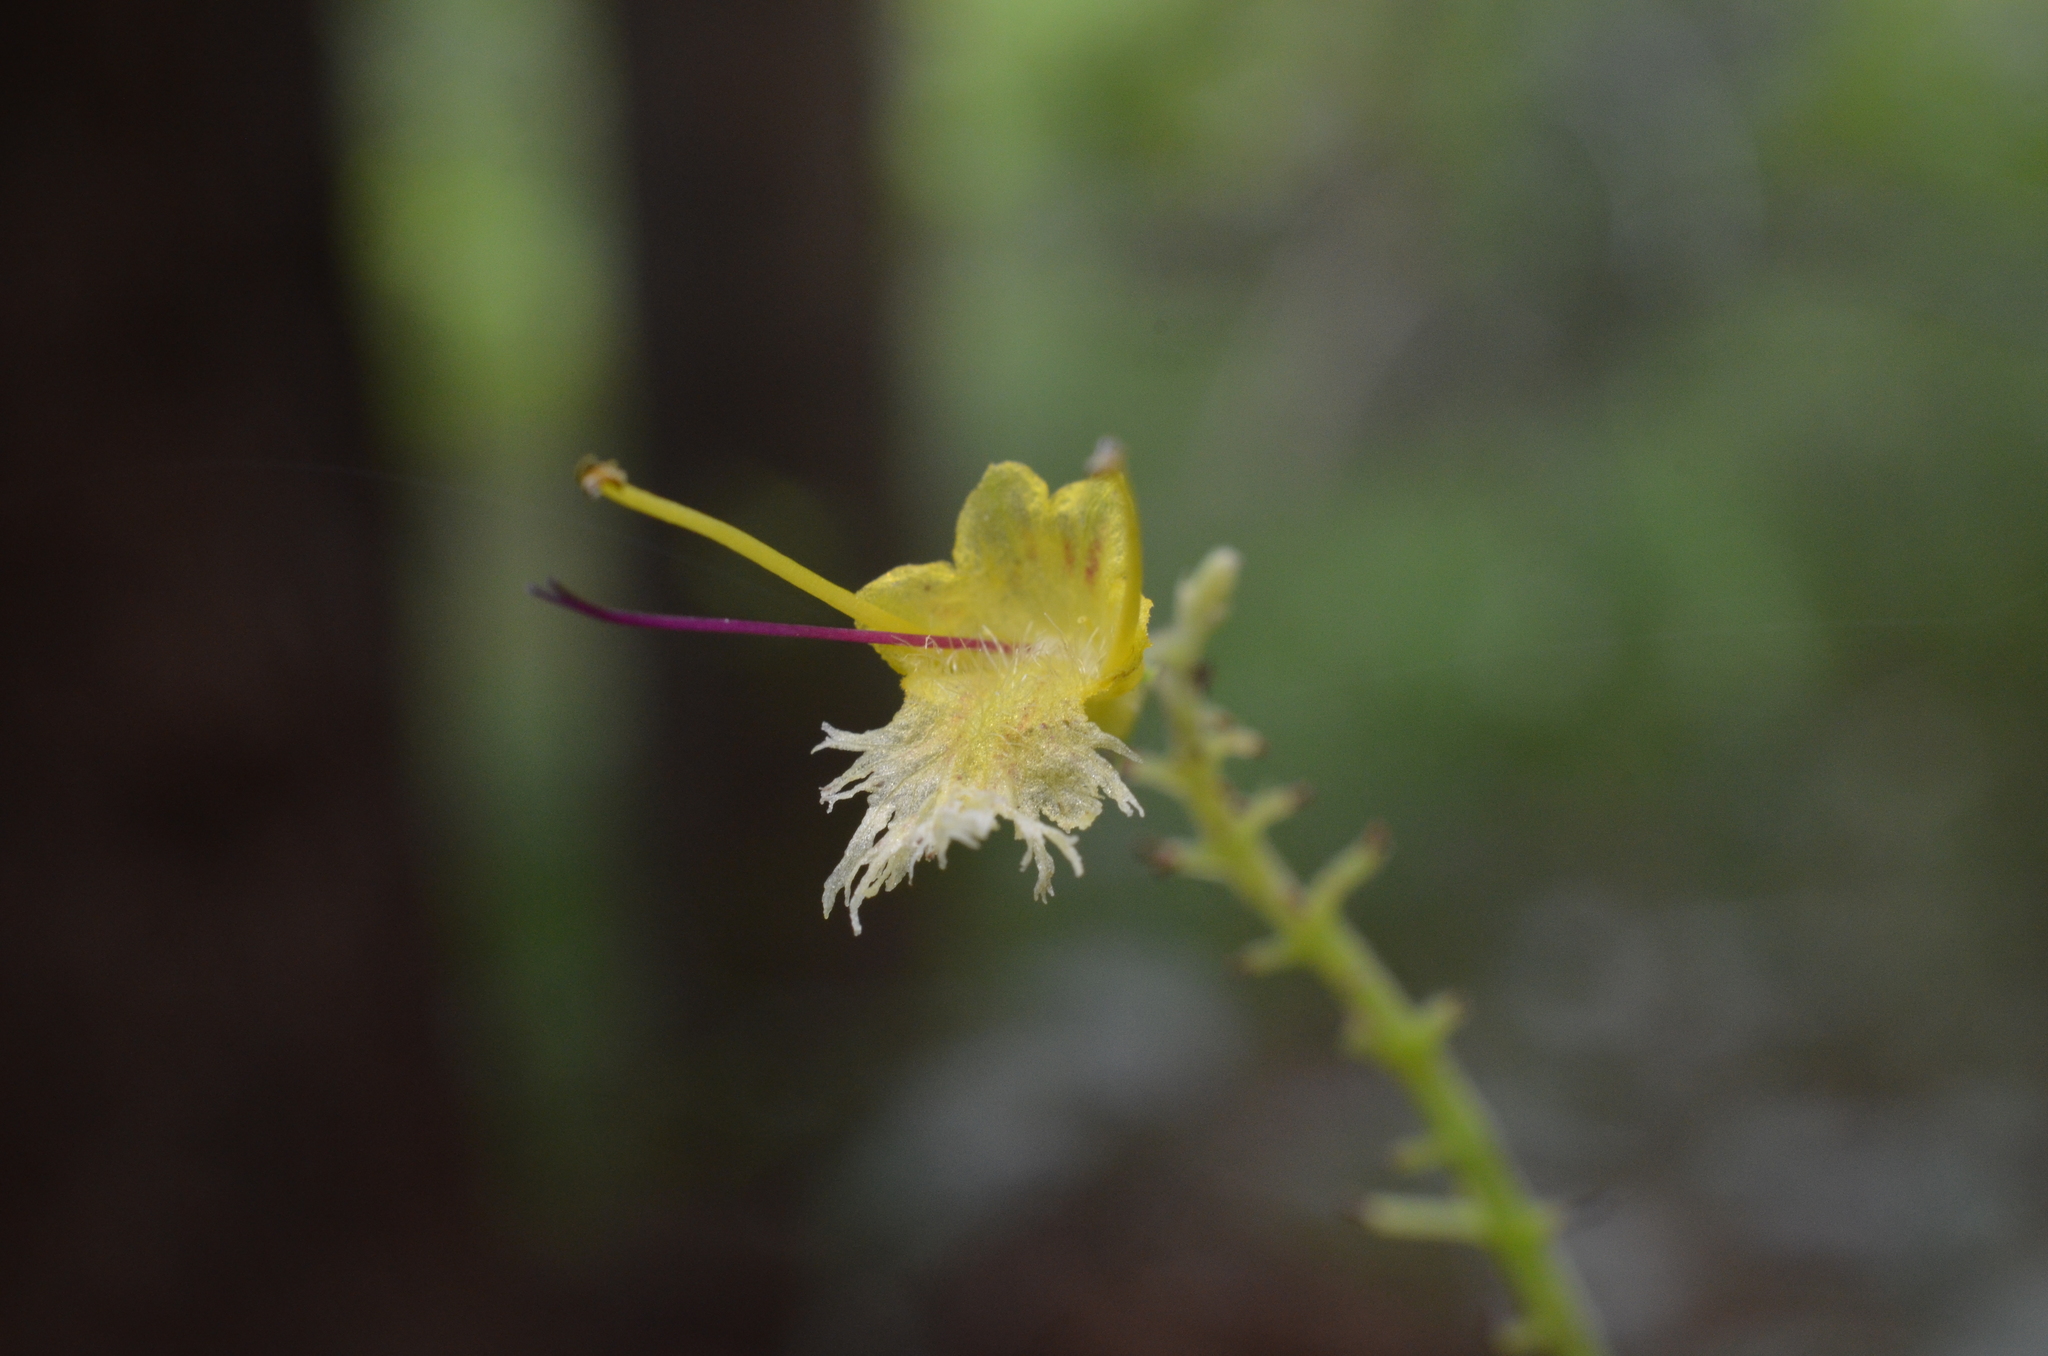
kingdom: Plantae
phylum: Tracheophyta
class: Magnoliopsida
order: Lamiales
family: Lamiaceae
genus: Collinsonia
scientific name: Collinsonia canadensis
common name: Northern horsebalm
